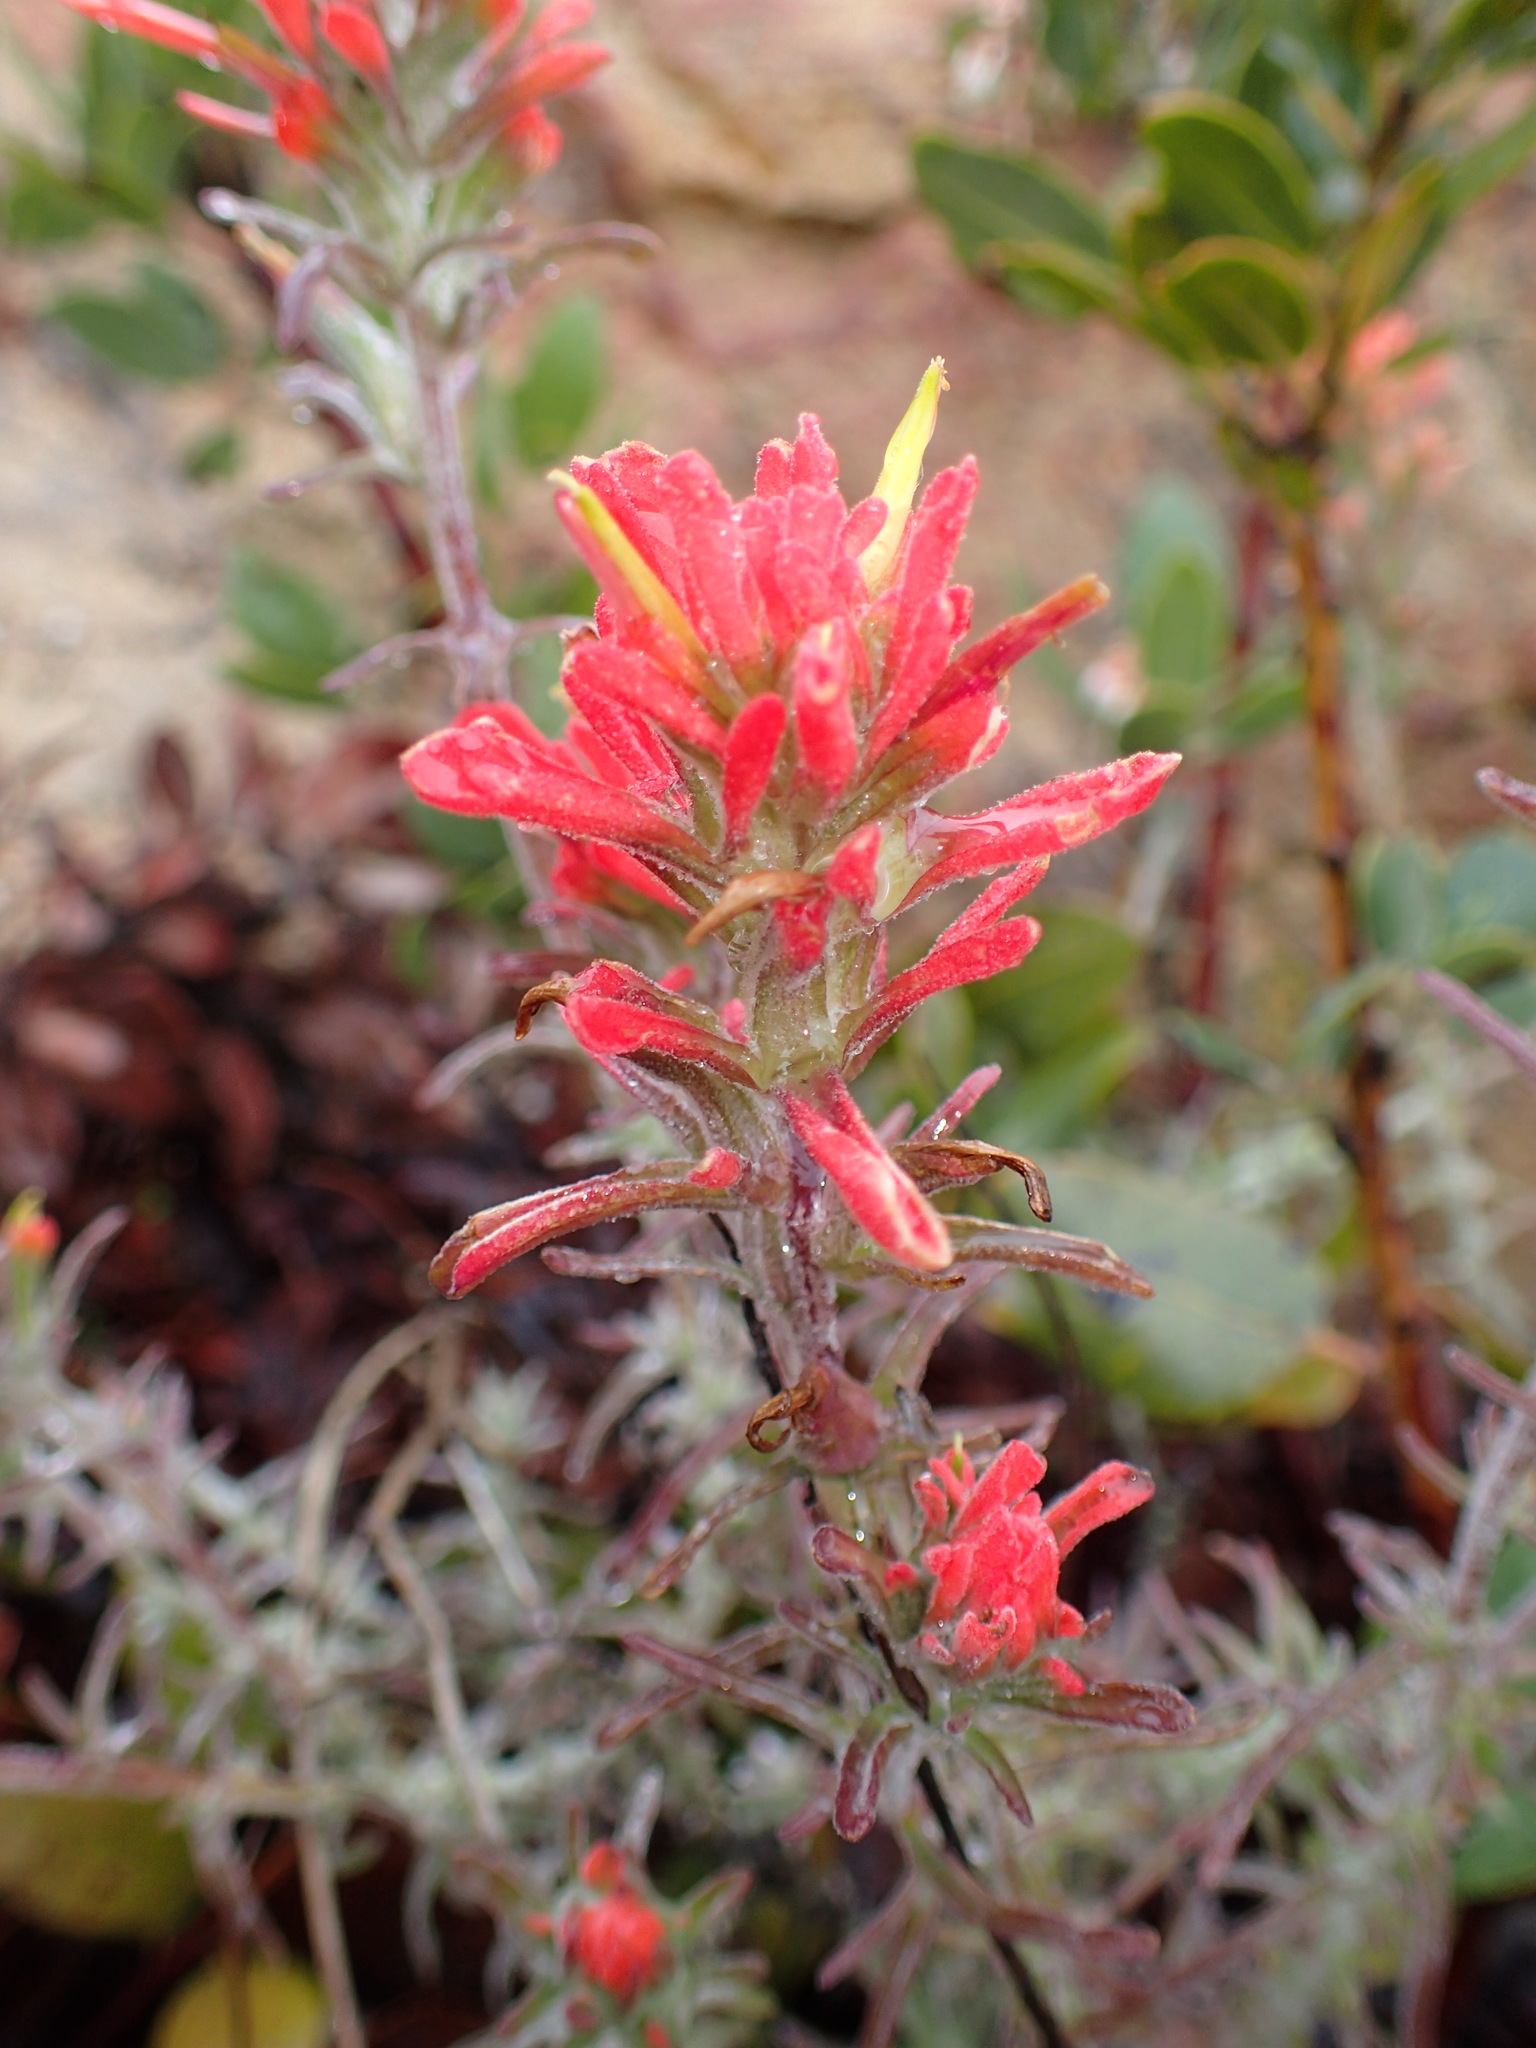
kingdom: Plantae
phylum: Tracheophyta
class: Magnoliopsida
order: Lamiales
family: Orobanchaceae
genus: Castilleja
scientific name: Castilleja foliolosa
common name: Woolly indian paintbrush
